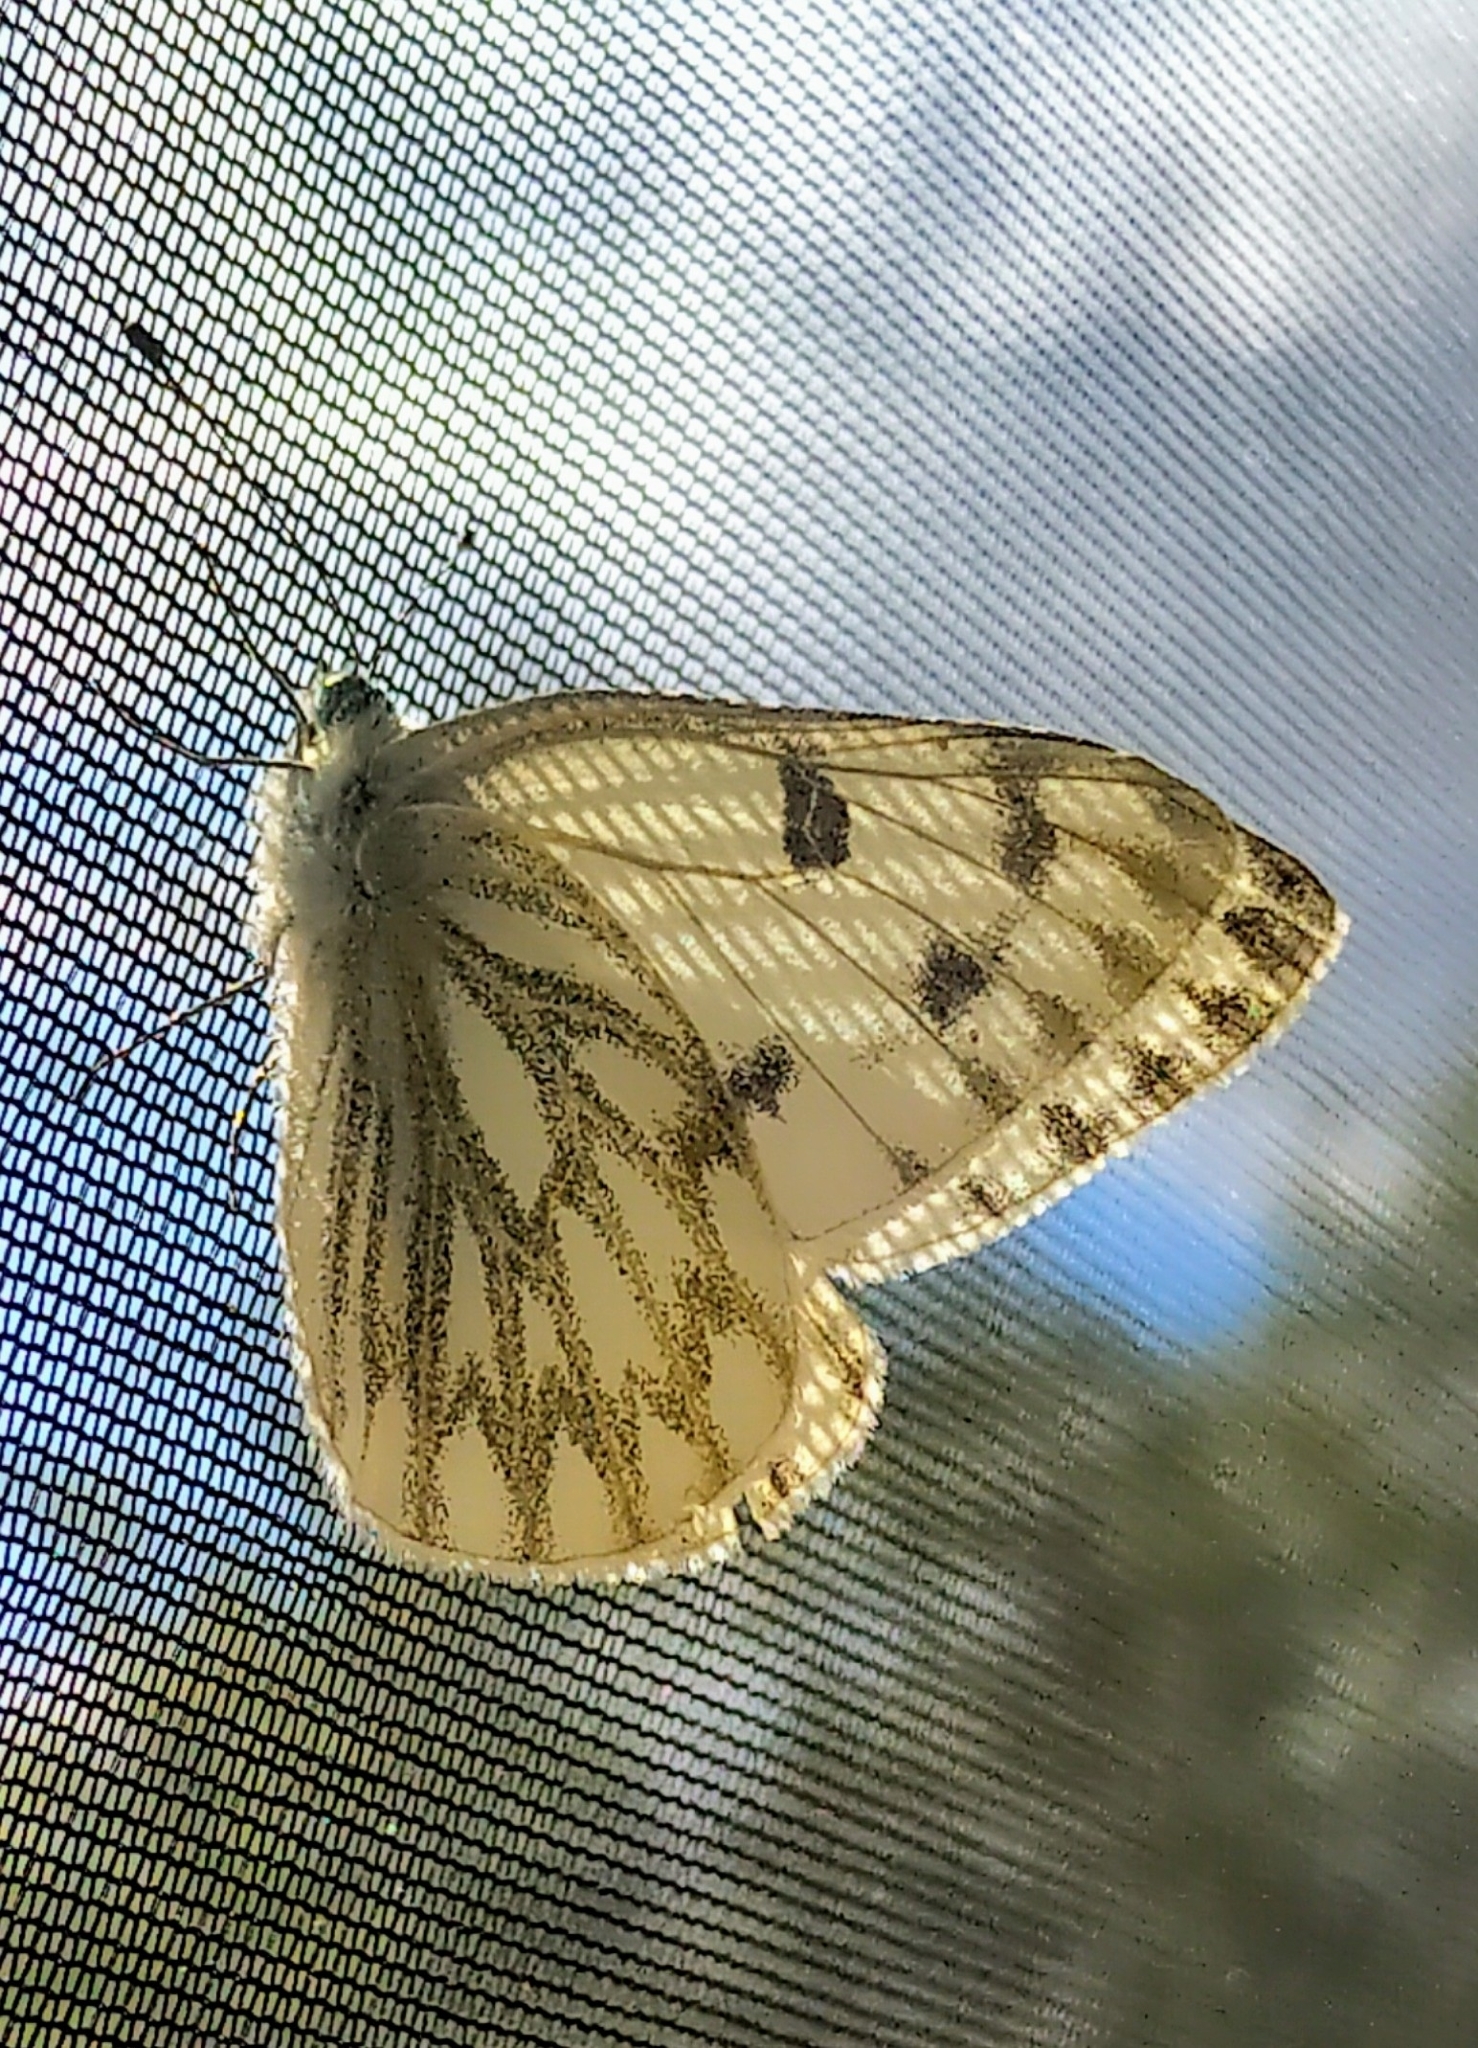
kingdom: Animalia
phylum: Arthropoda
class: Insecta
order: Lepidoptera
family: Pieridae
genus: Pontia
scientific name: Pontia occidentalis
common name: Western white
